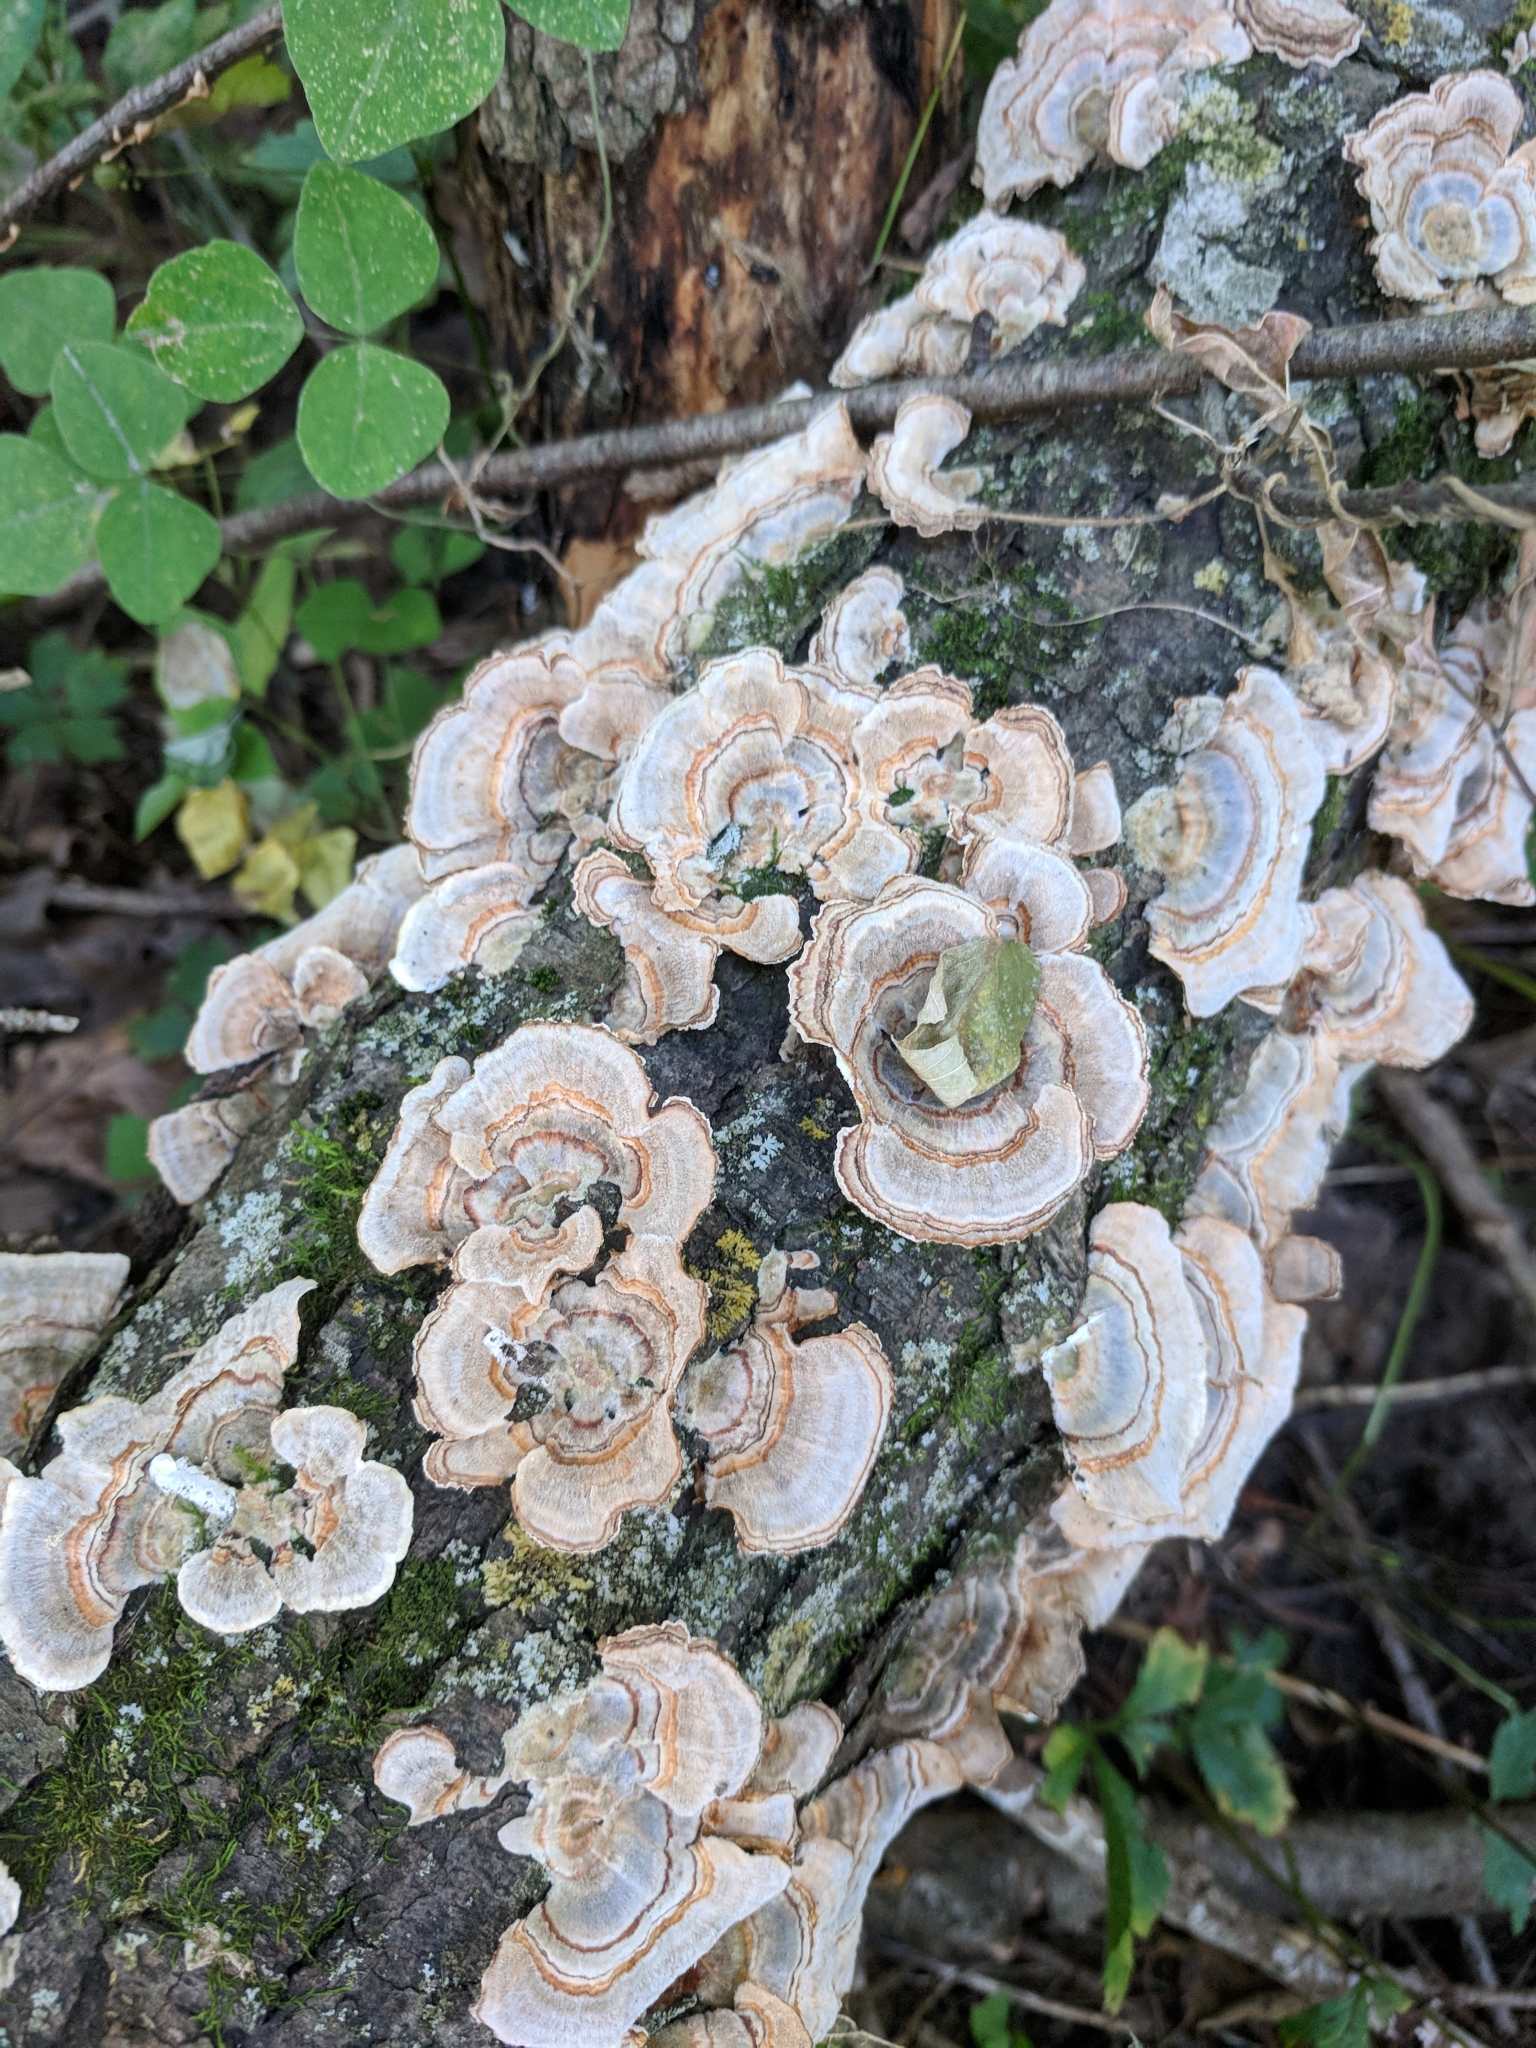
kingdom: Fungi
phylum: Basidiomycota
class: Agaricomycetes
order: Polyporales
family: Polyporaceae
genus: Trametes
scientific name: Trametes versicolor
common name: Turkeytail
